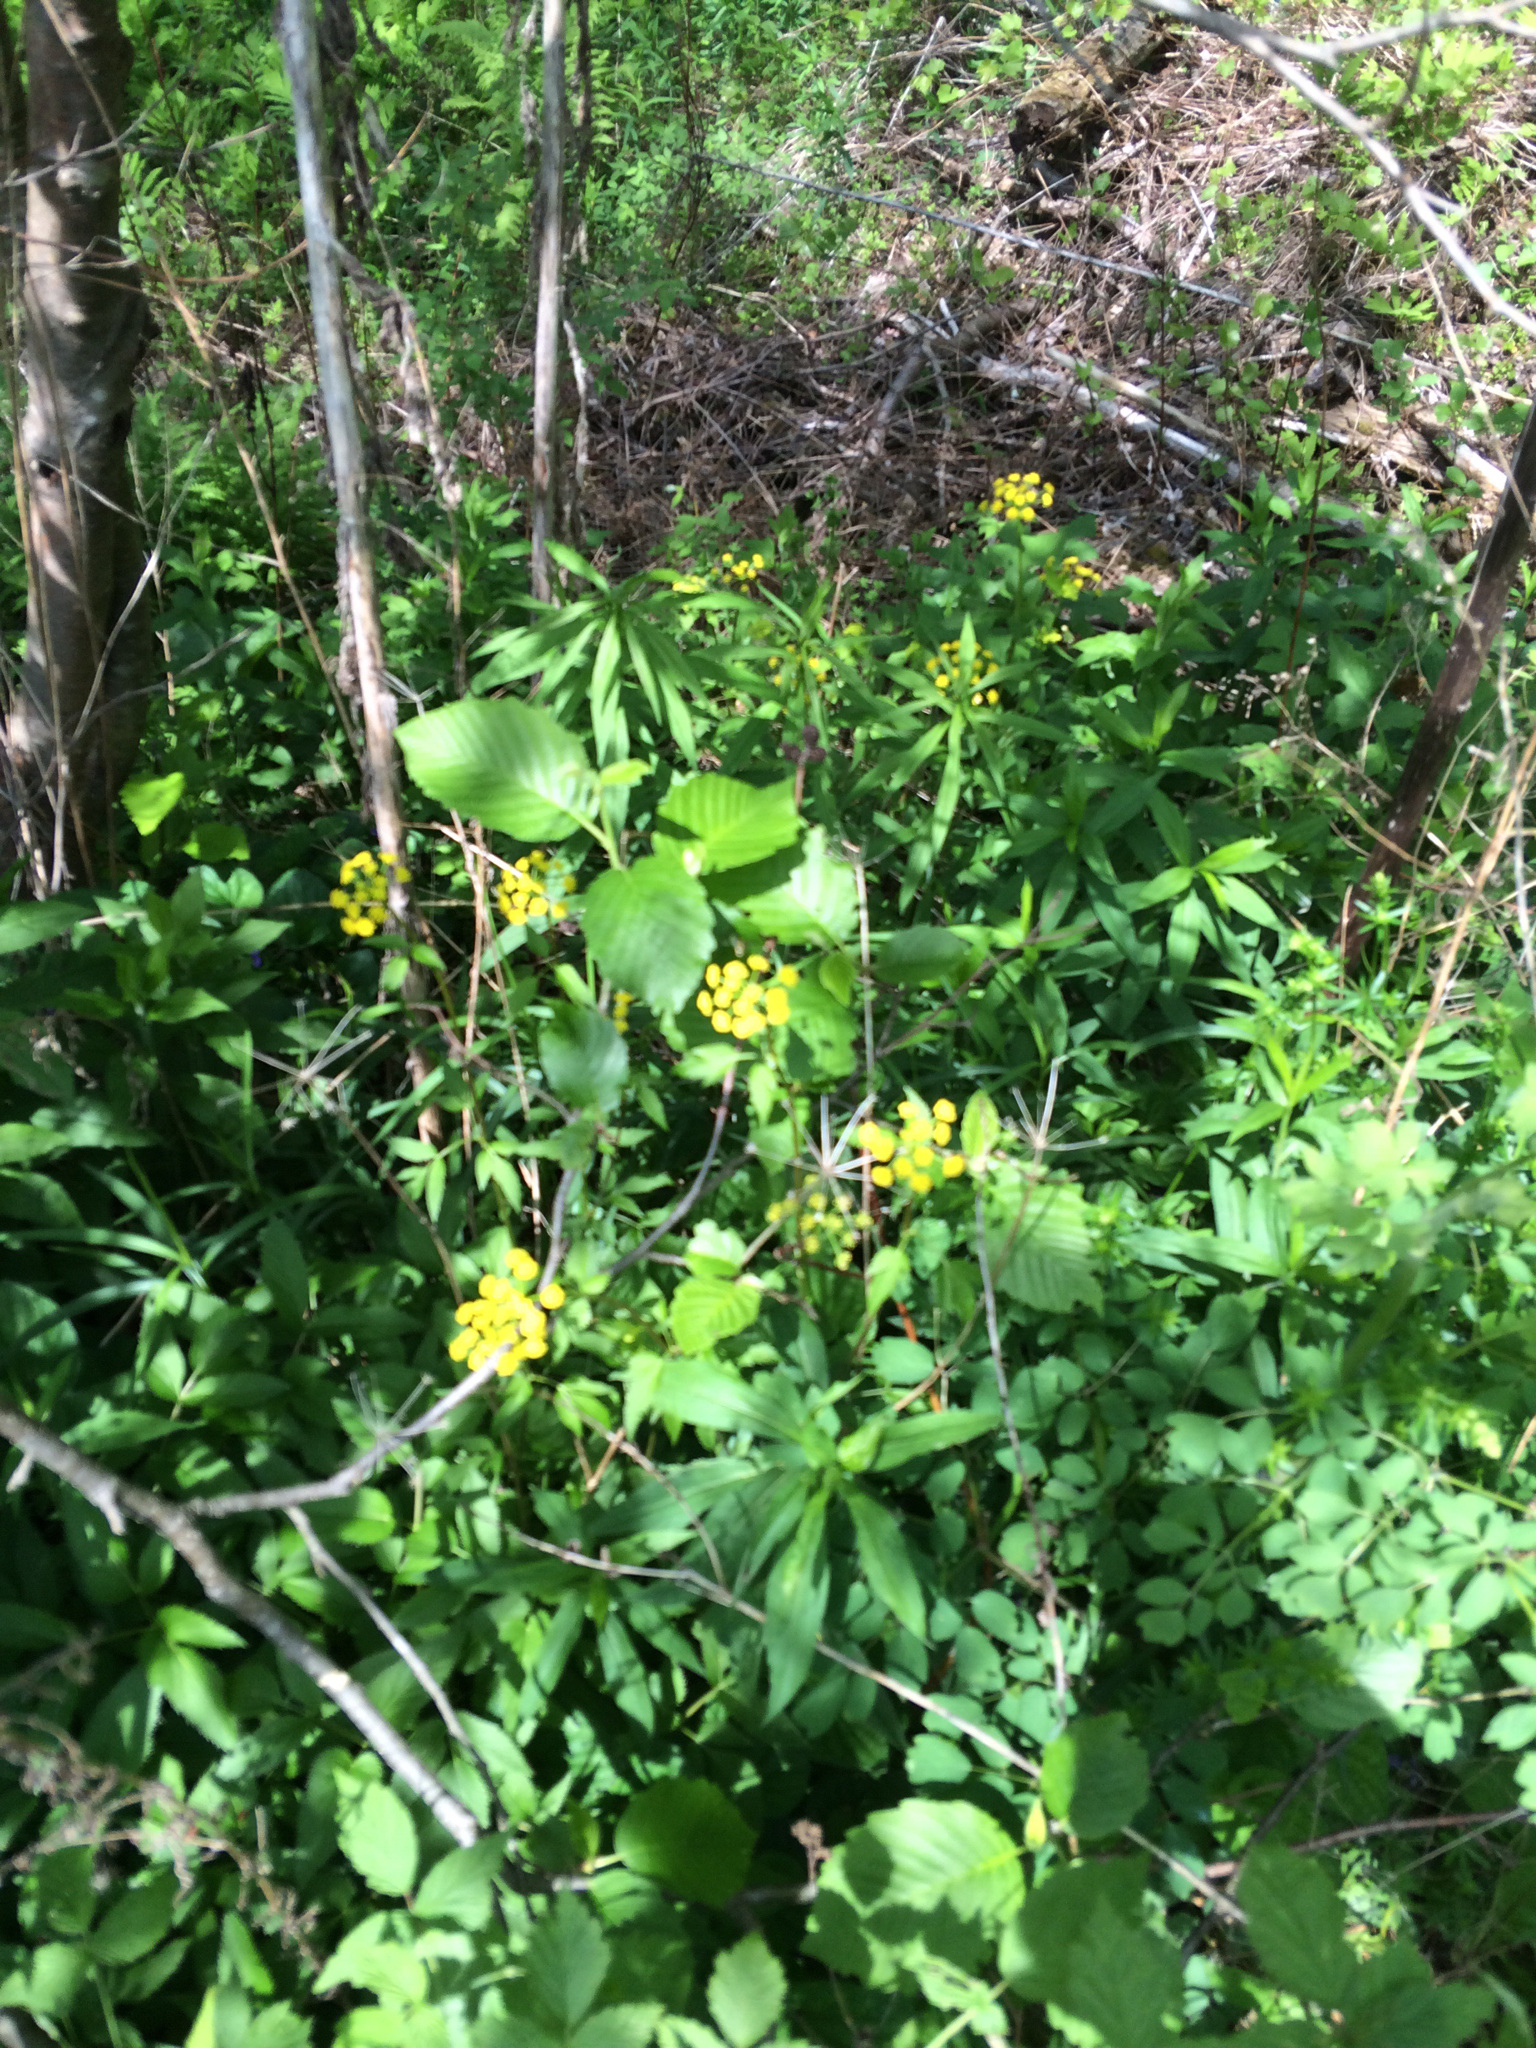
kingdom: Plantae
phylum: Tracheophyta
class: Magnoliopsida
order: Apiales
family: Apiaceae
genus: Zizia
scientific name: Zizia aurea
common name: Golden alexanders
